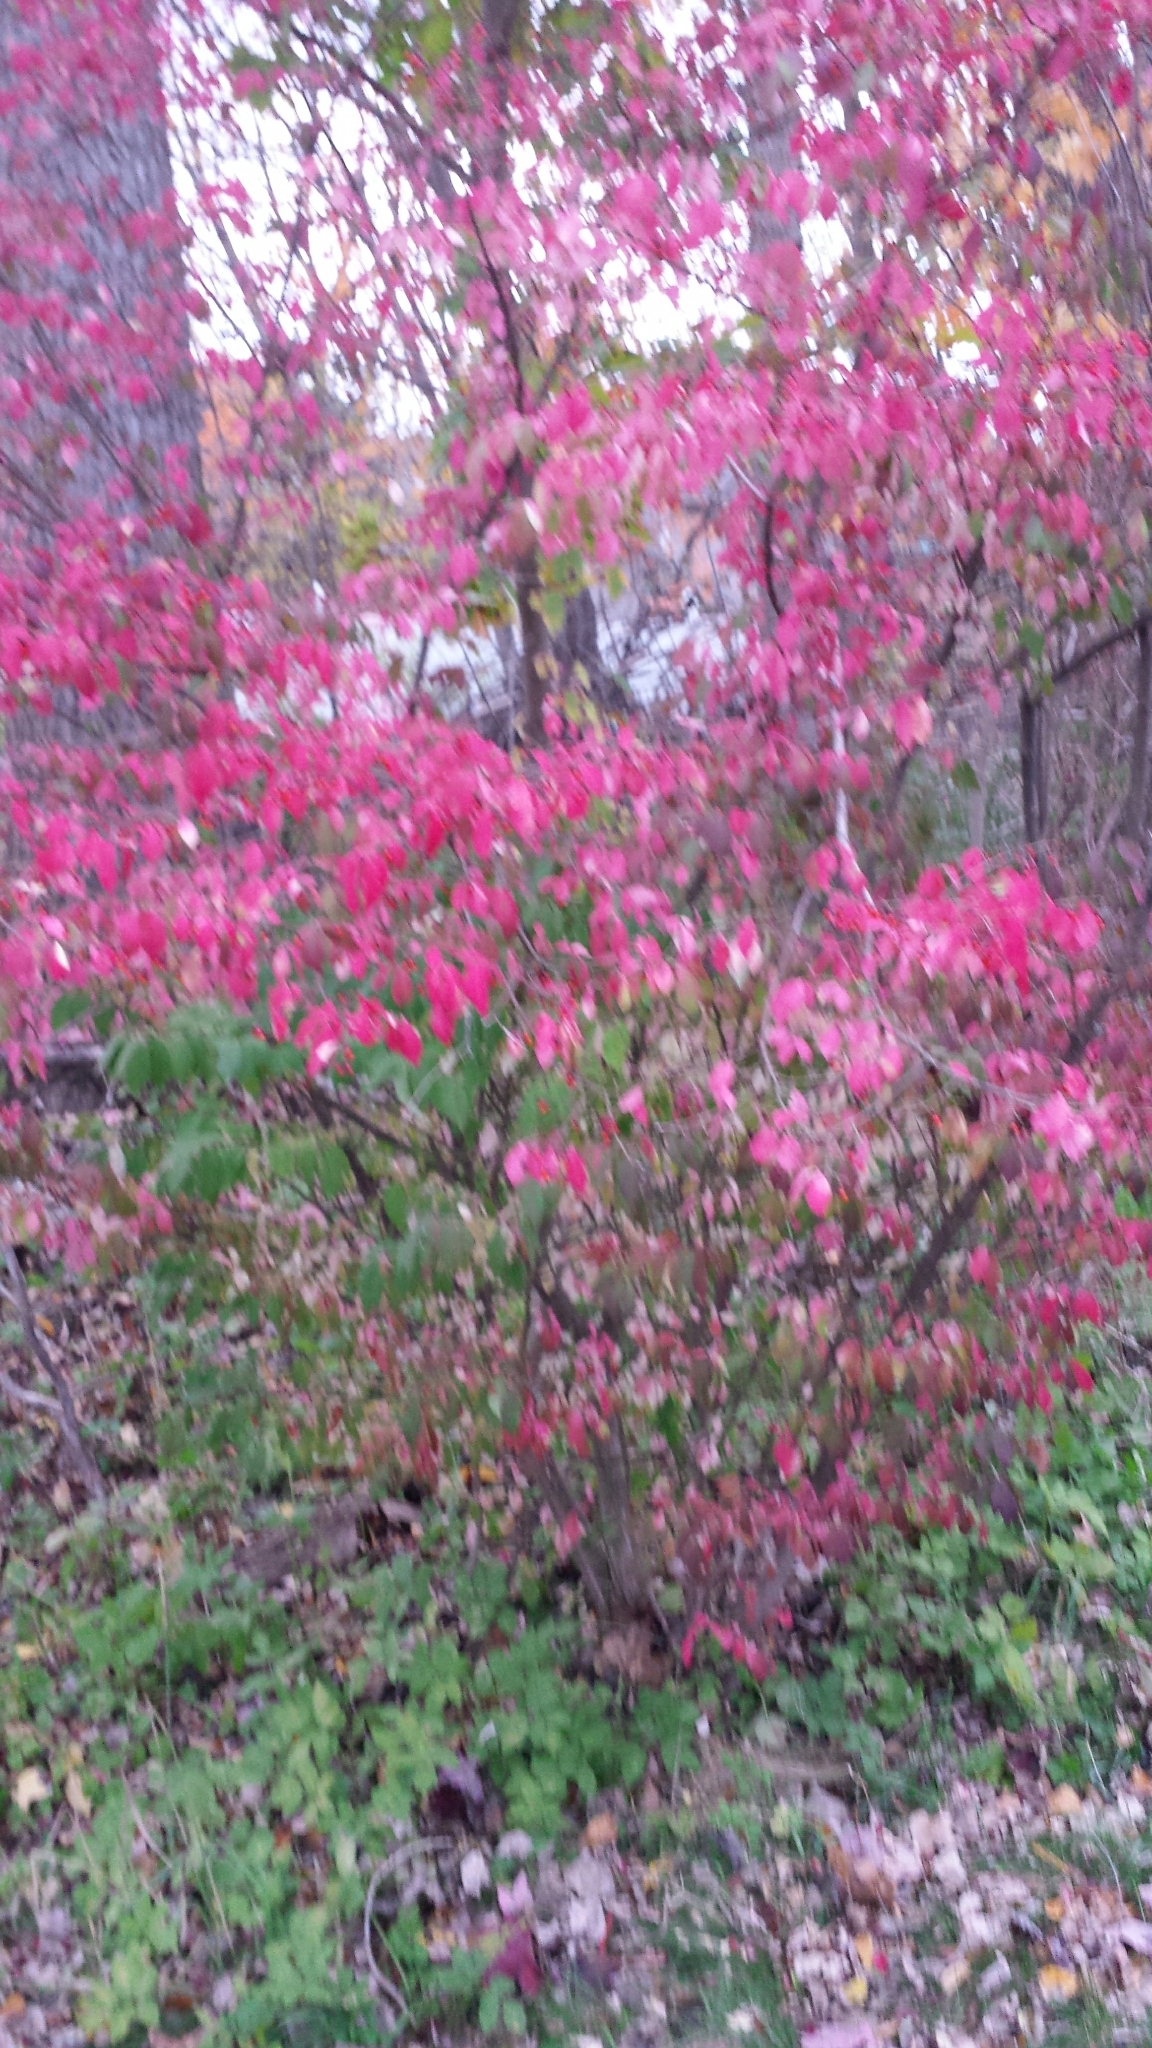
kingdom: Plantae
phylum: Tracheophyta
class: Magnoliopsida
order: Celastrales
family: Celastraceae
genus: Euonymus
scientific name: Euonymus alatus
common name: Winged euonymus
